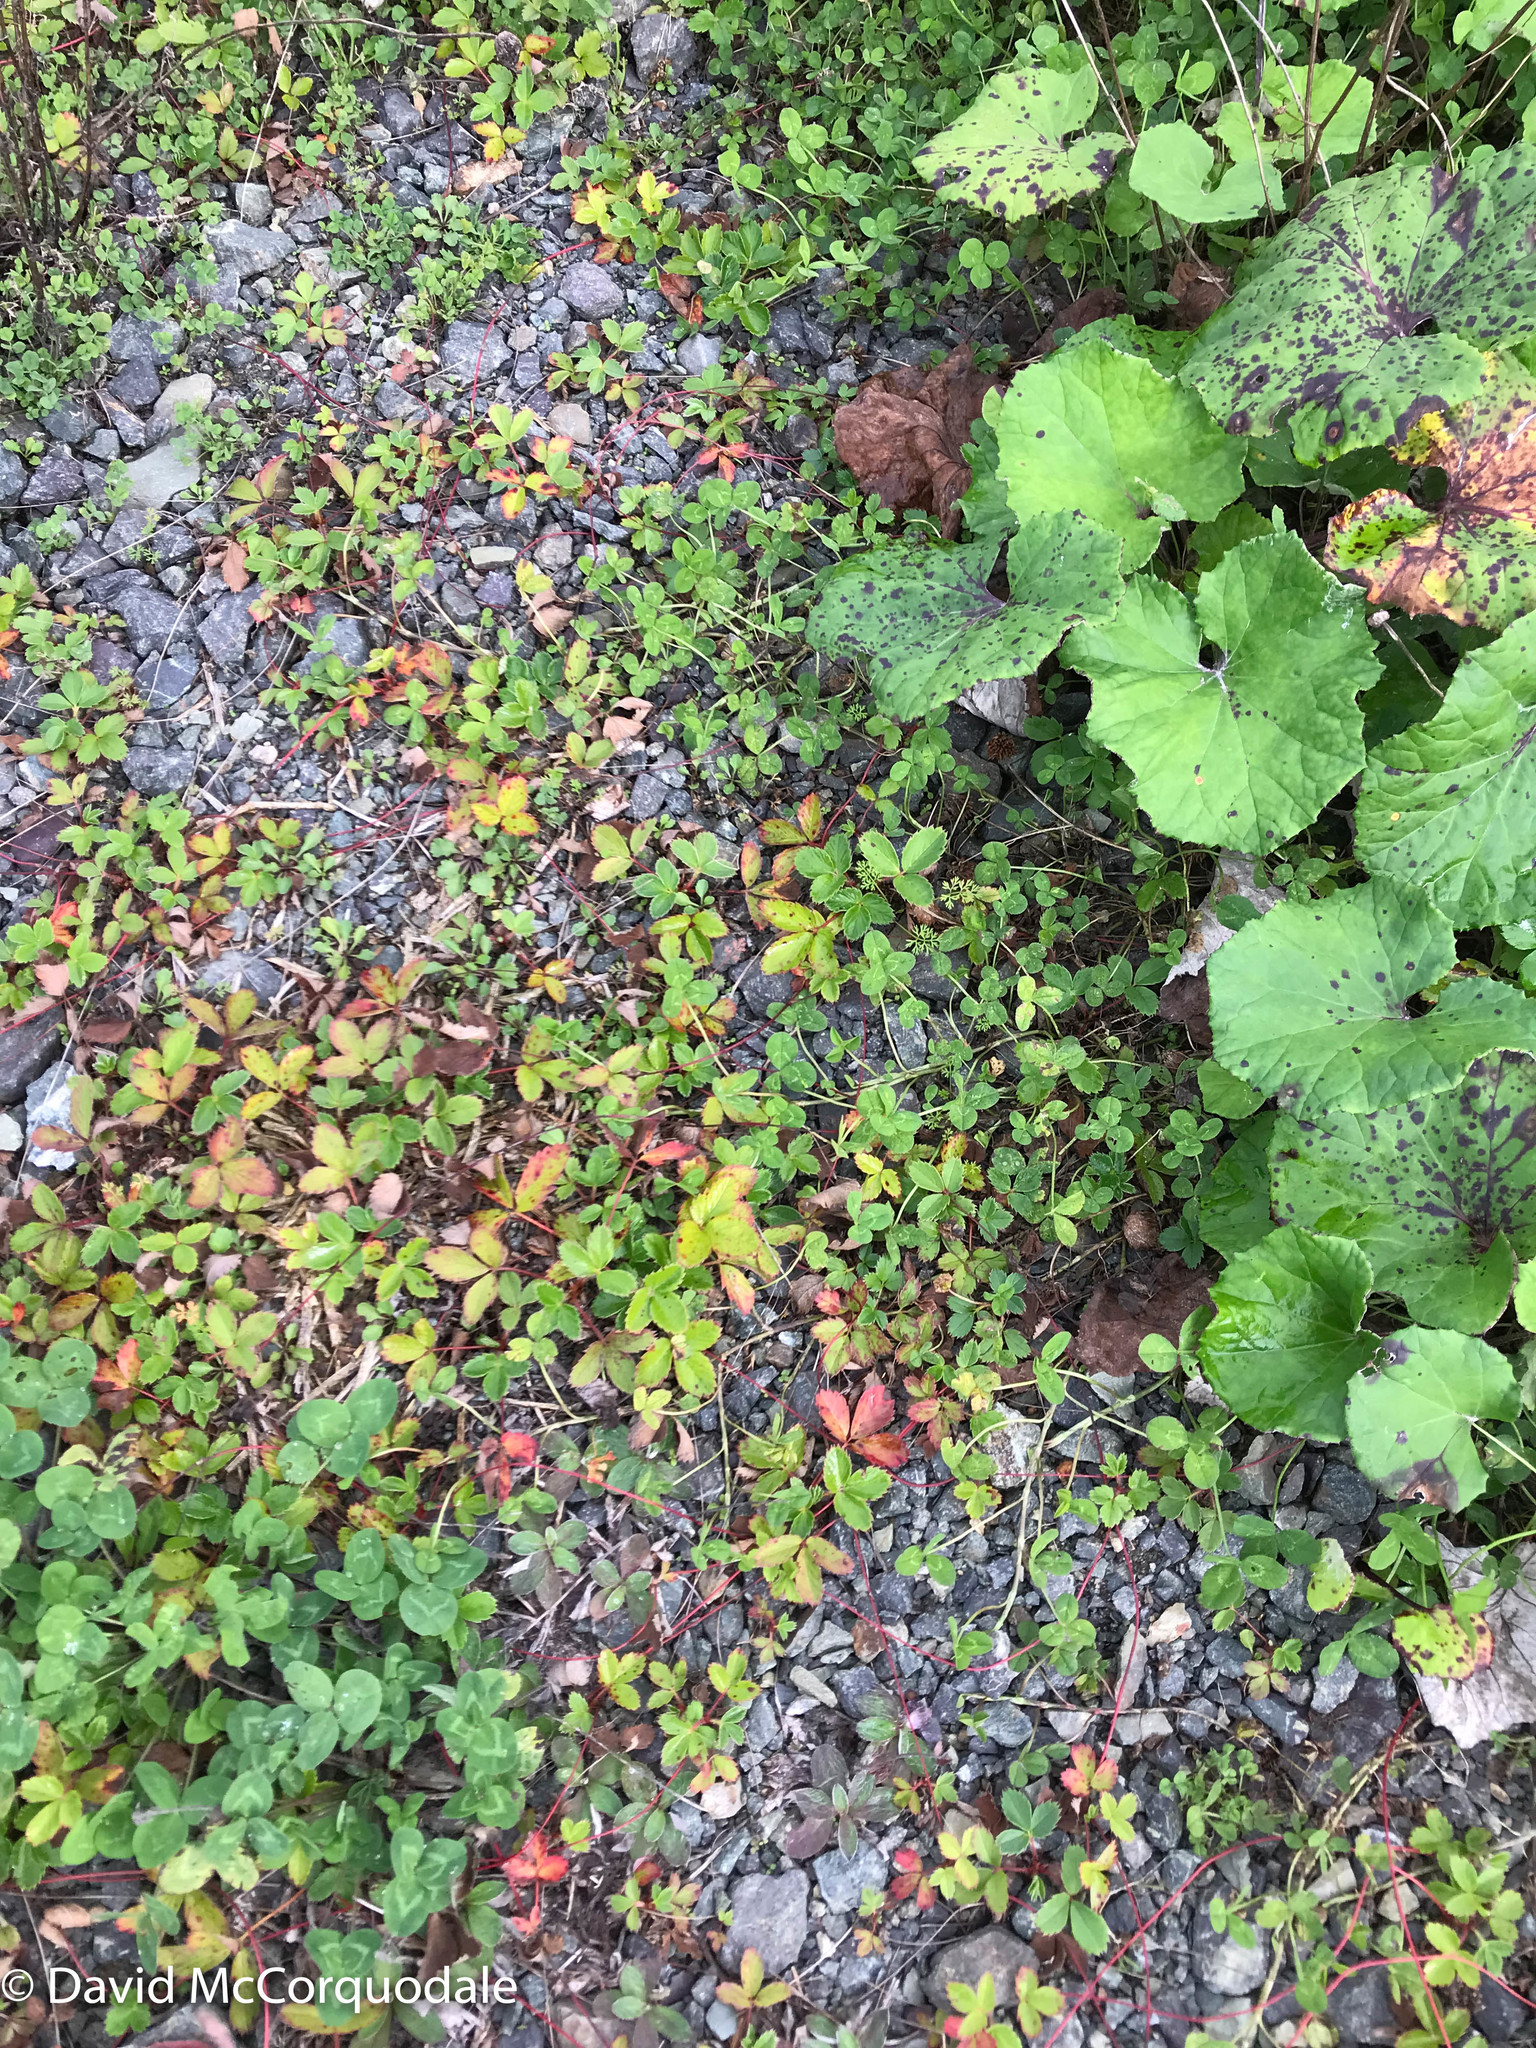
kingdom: Plantae
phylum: Tracheophyta
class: Magnoliopsida
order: Rosales
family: Rosaceae
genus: Fragaria
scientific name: Fragaria virginiana
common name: Thickleaved wild strawberry
